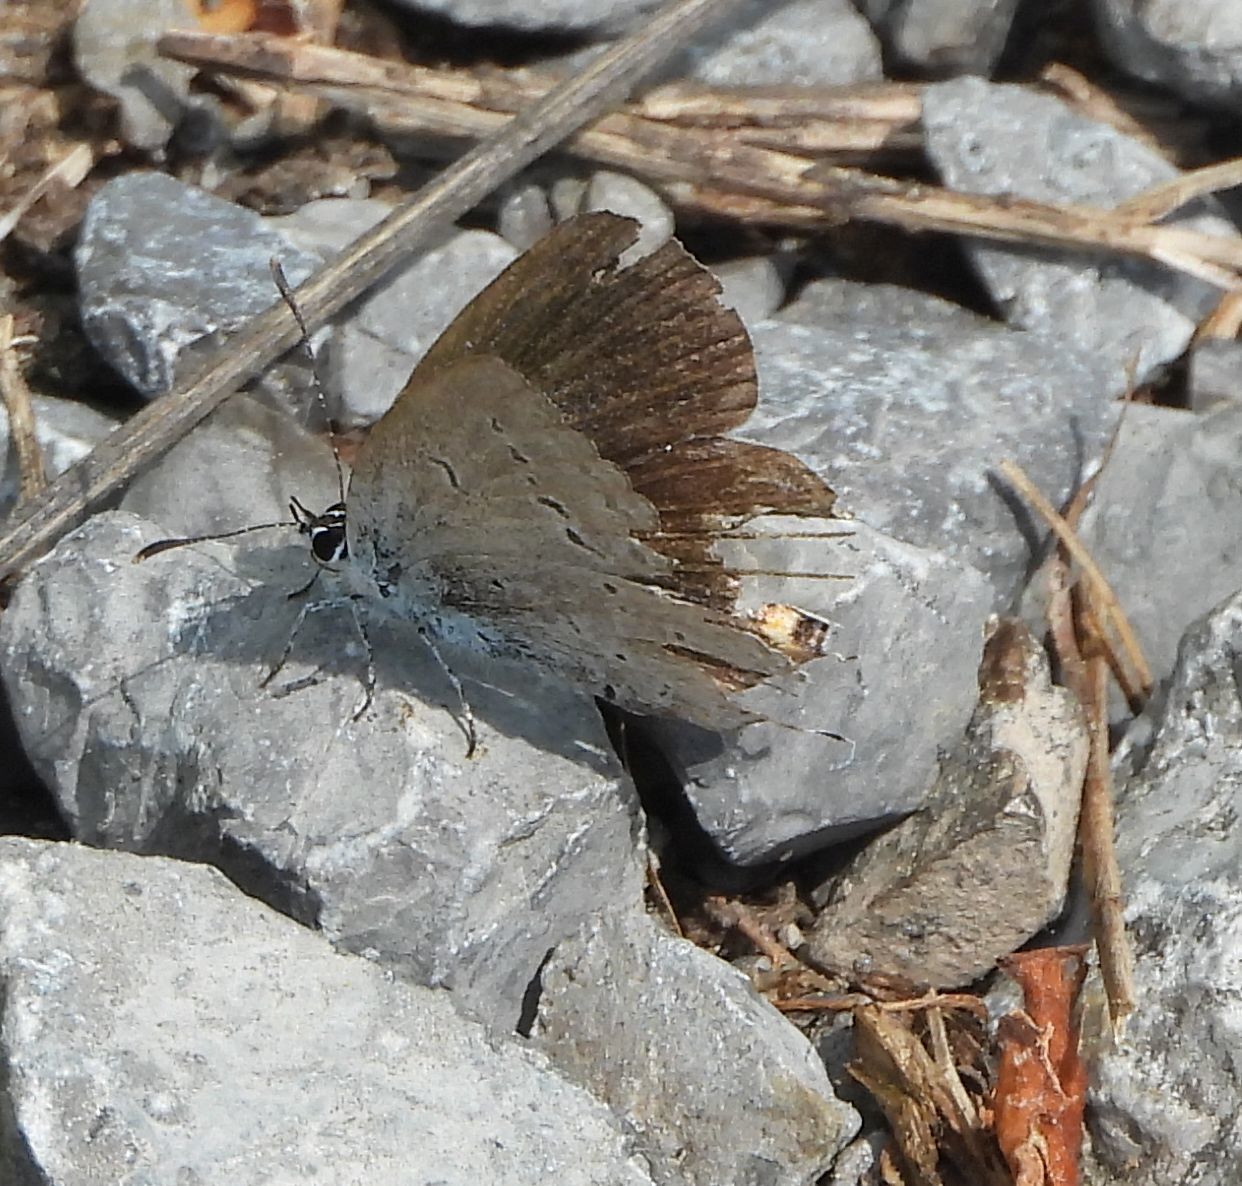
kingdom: Animalia
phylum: Arthropoda
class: Insecta
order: Lepidoptera
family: Lycaenidae
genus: Elkalyce
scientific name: Elkalyce comyntas
